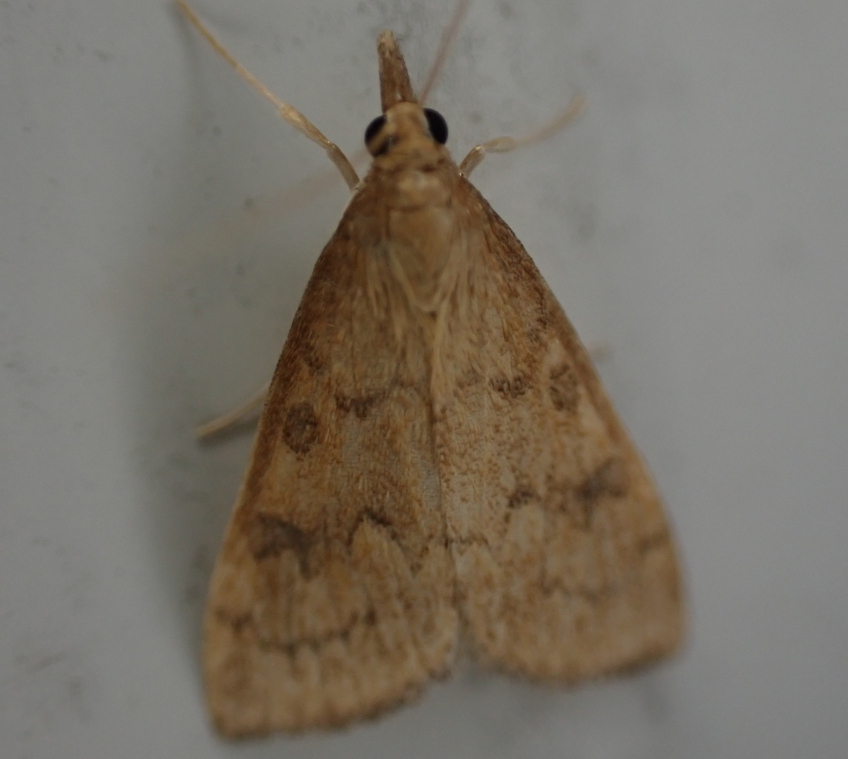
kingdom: Animalia
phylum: Arthropoda
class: Insecta
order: Lepidoptera
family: Crambidae
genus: Udea
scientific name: Udea rubigalis
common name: Celery leaftier moth
